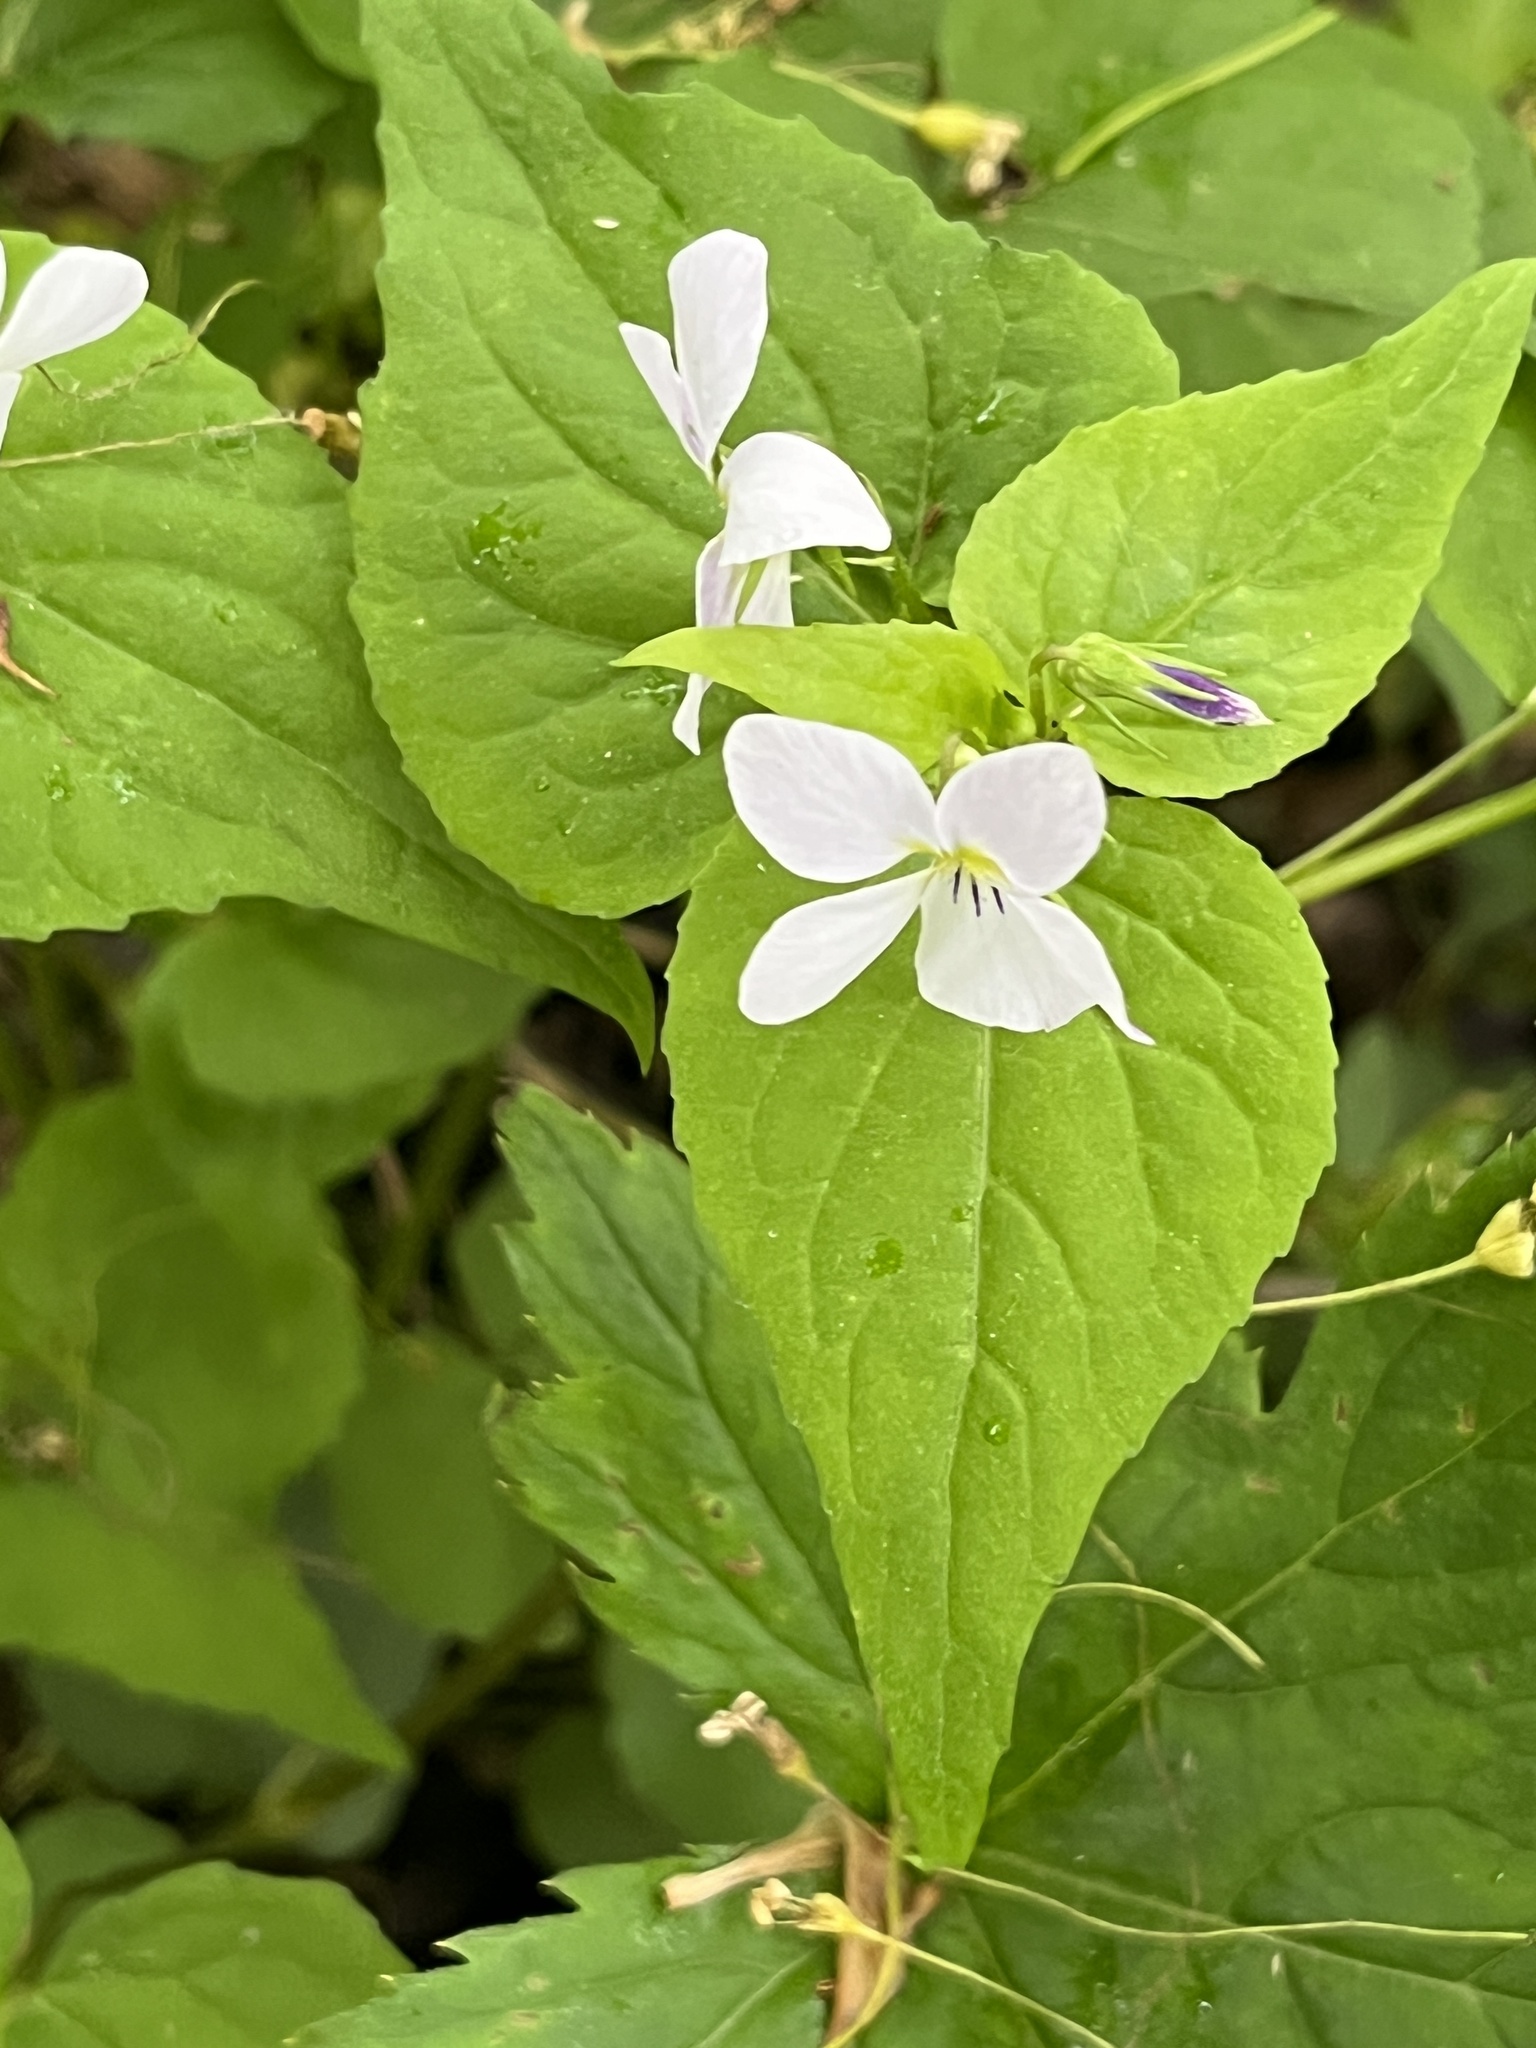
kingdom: Plantae
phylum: Tracheophyta
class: Magnoliopsida
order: Malpighiales
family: Violaceae
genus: Viola
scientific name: Viola canadensis
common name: Canada violet
